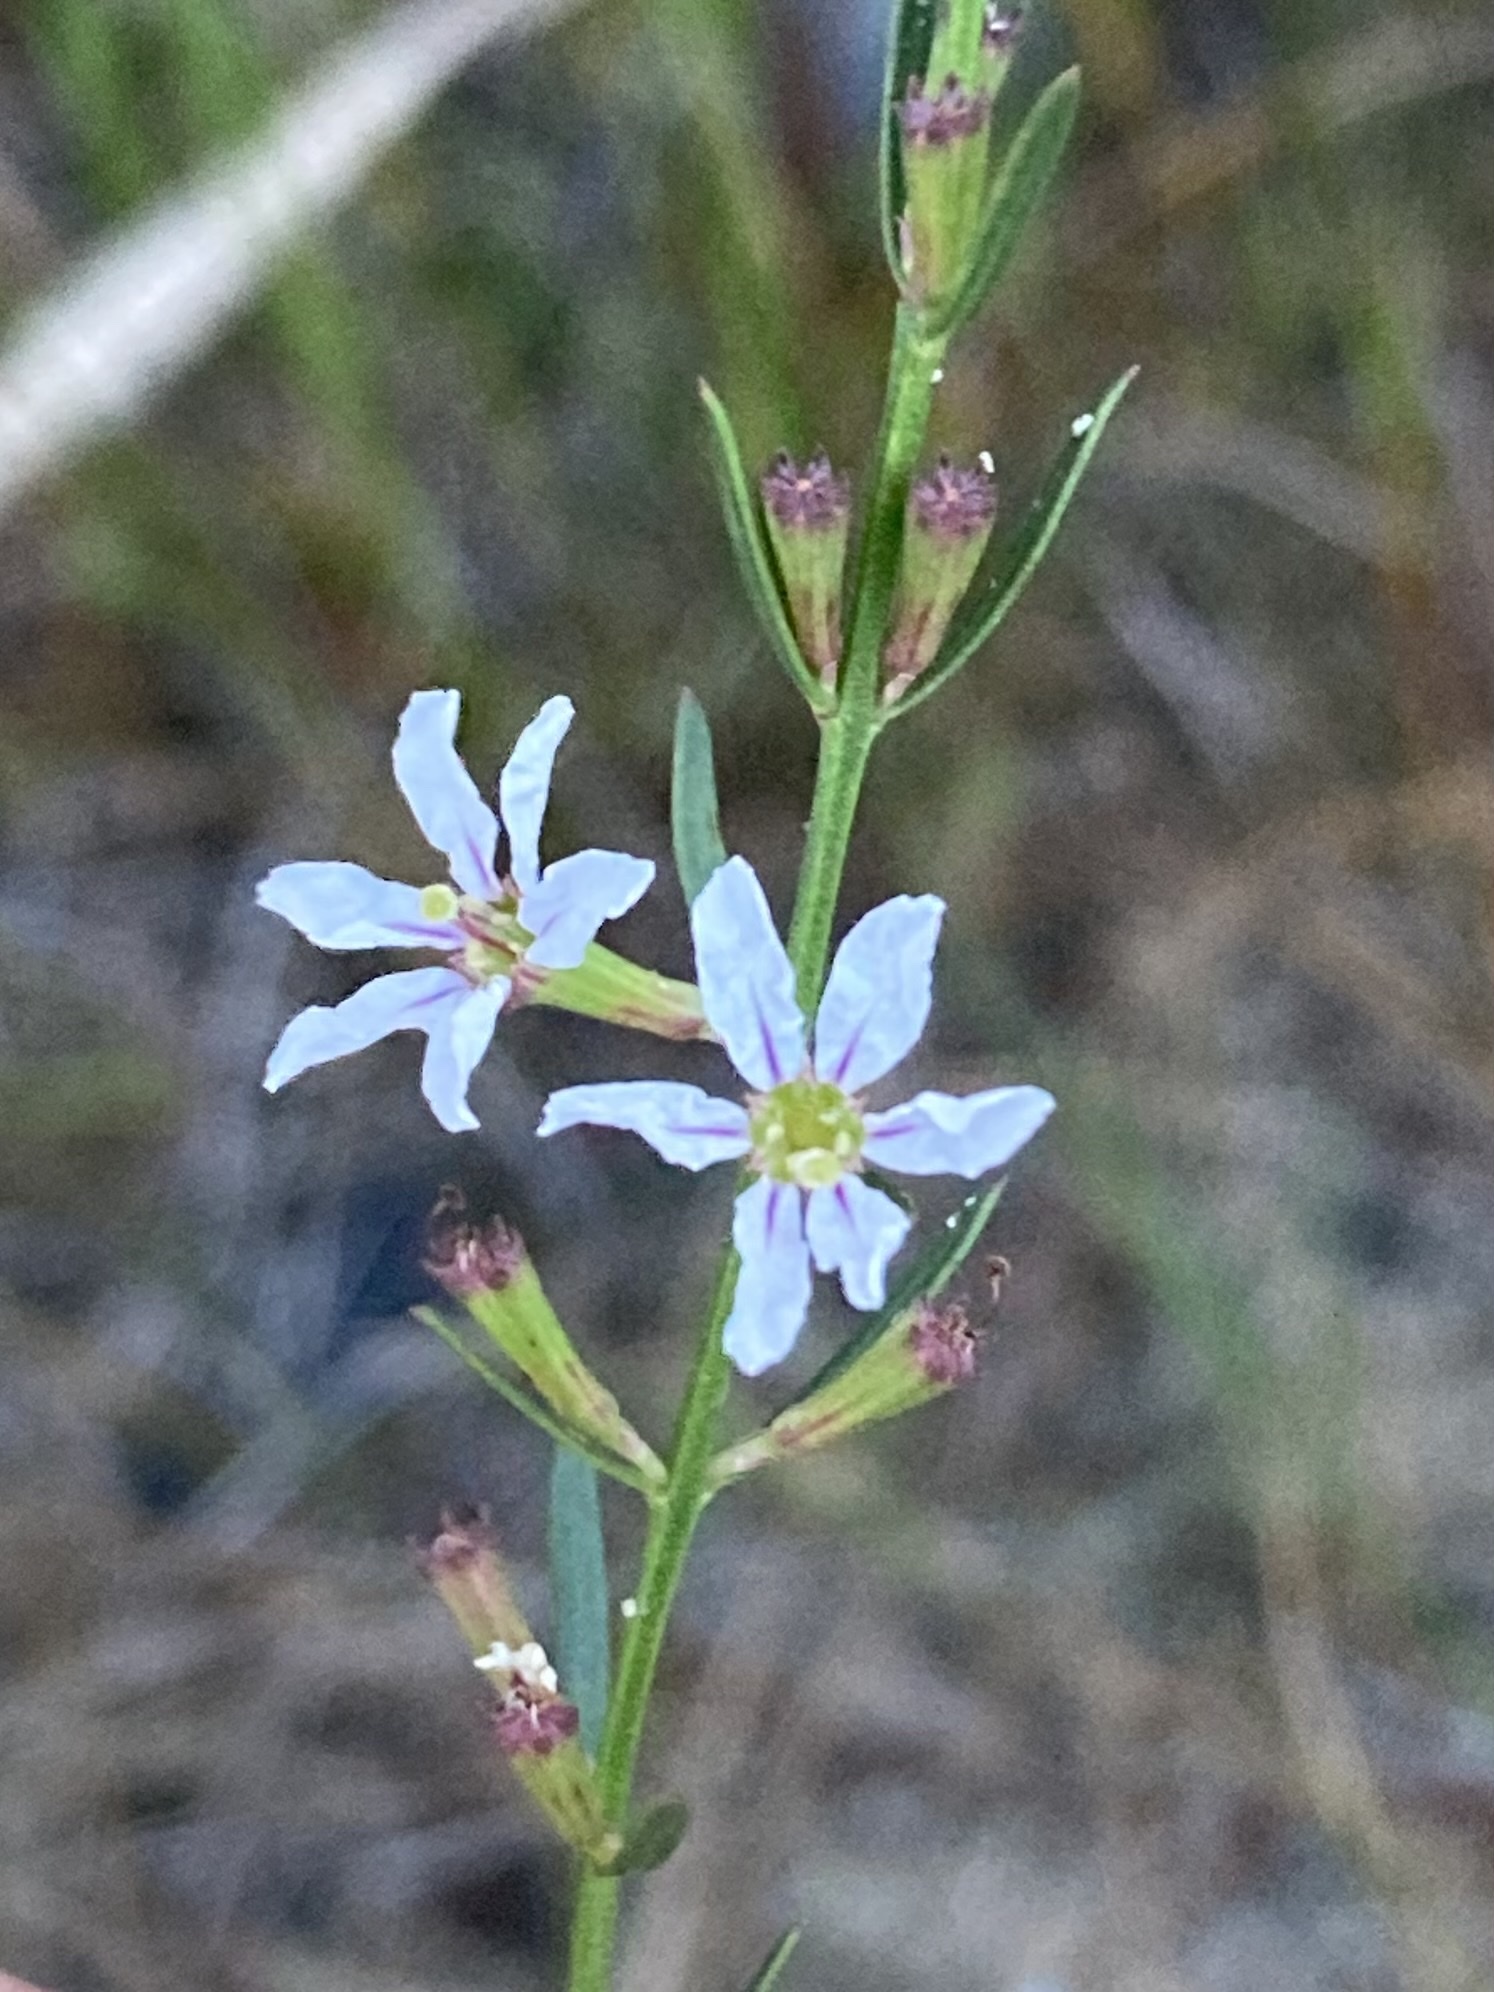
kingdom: Plantae
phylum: Tracheophyta
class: Magnoliopsida
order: Myrtales
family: Lythraceae
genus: Lythrum
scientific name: Lythrum lineare
